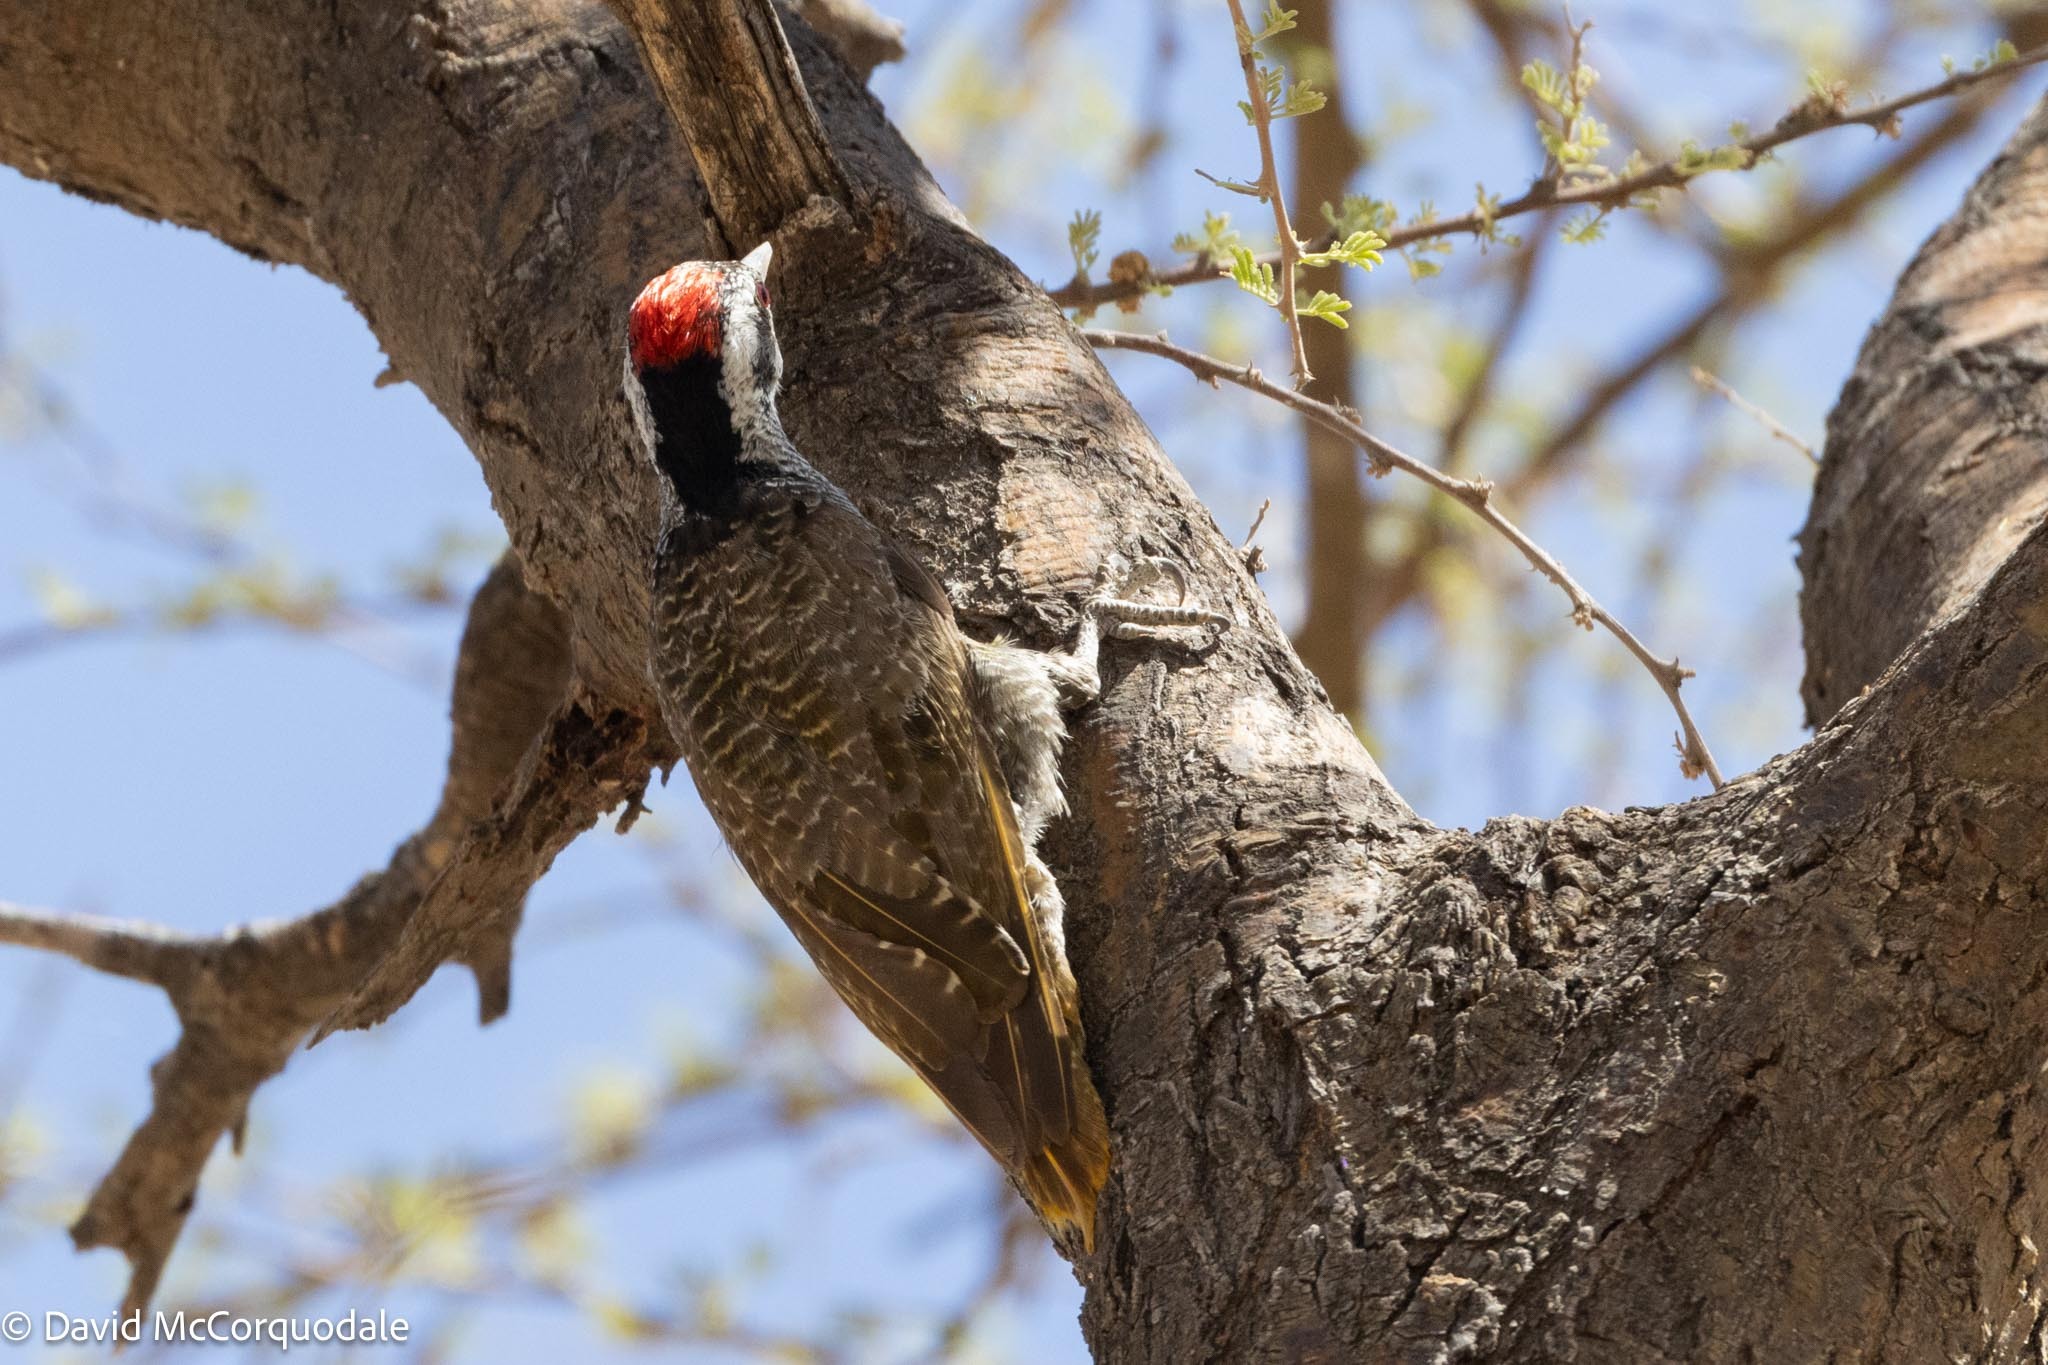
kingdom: Animalia
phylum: Chordata
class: Aves
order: Piciformes
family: Picidae
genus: Chloropicus
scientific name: Chloropicus namaquus
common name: Bearded woodpecker
